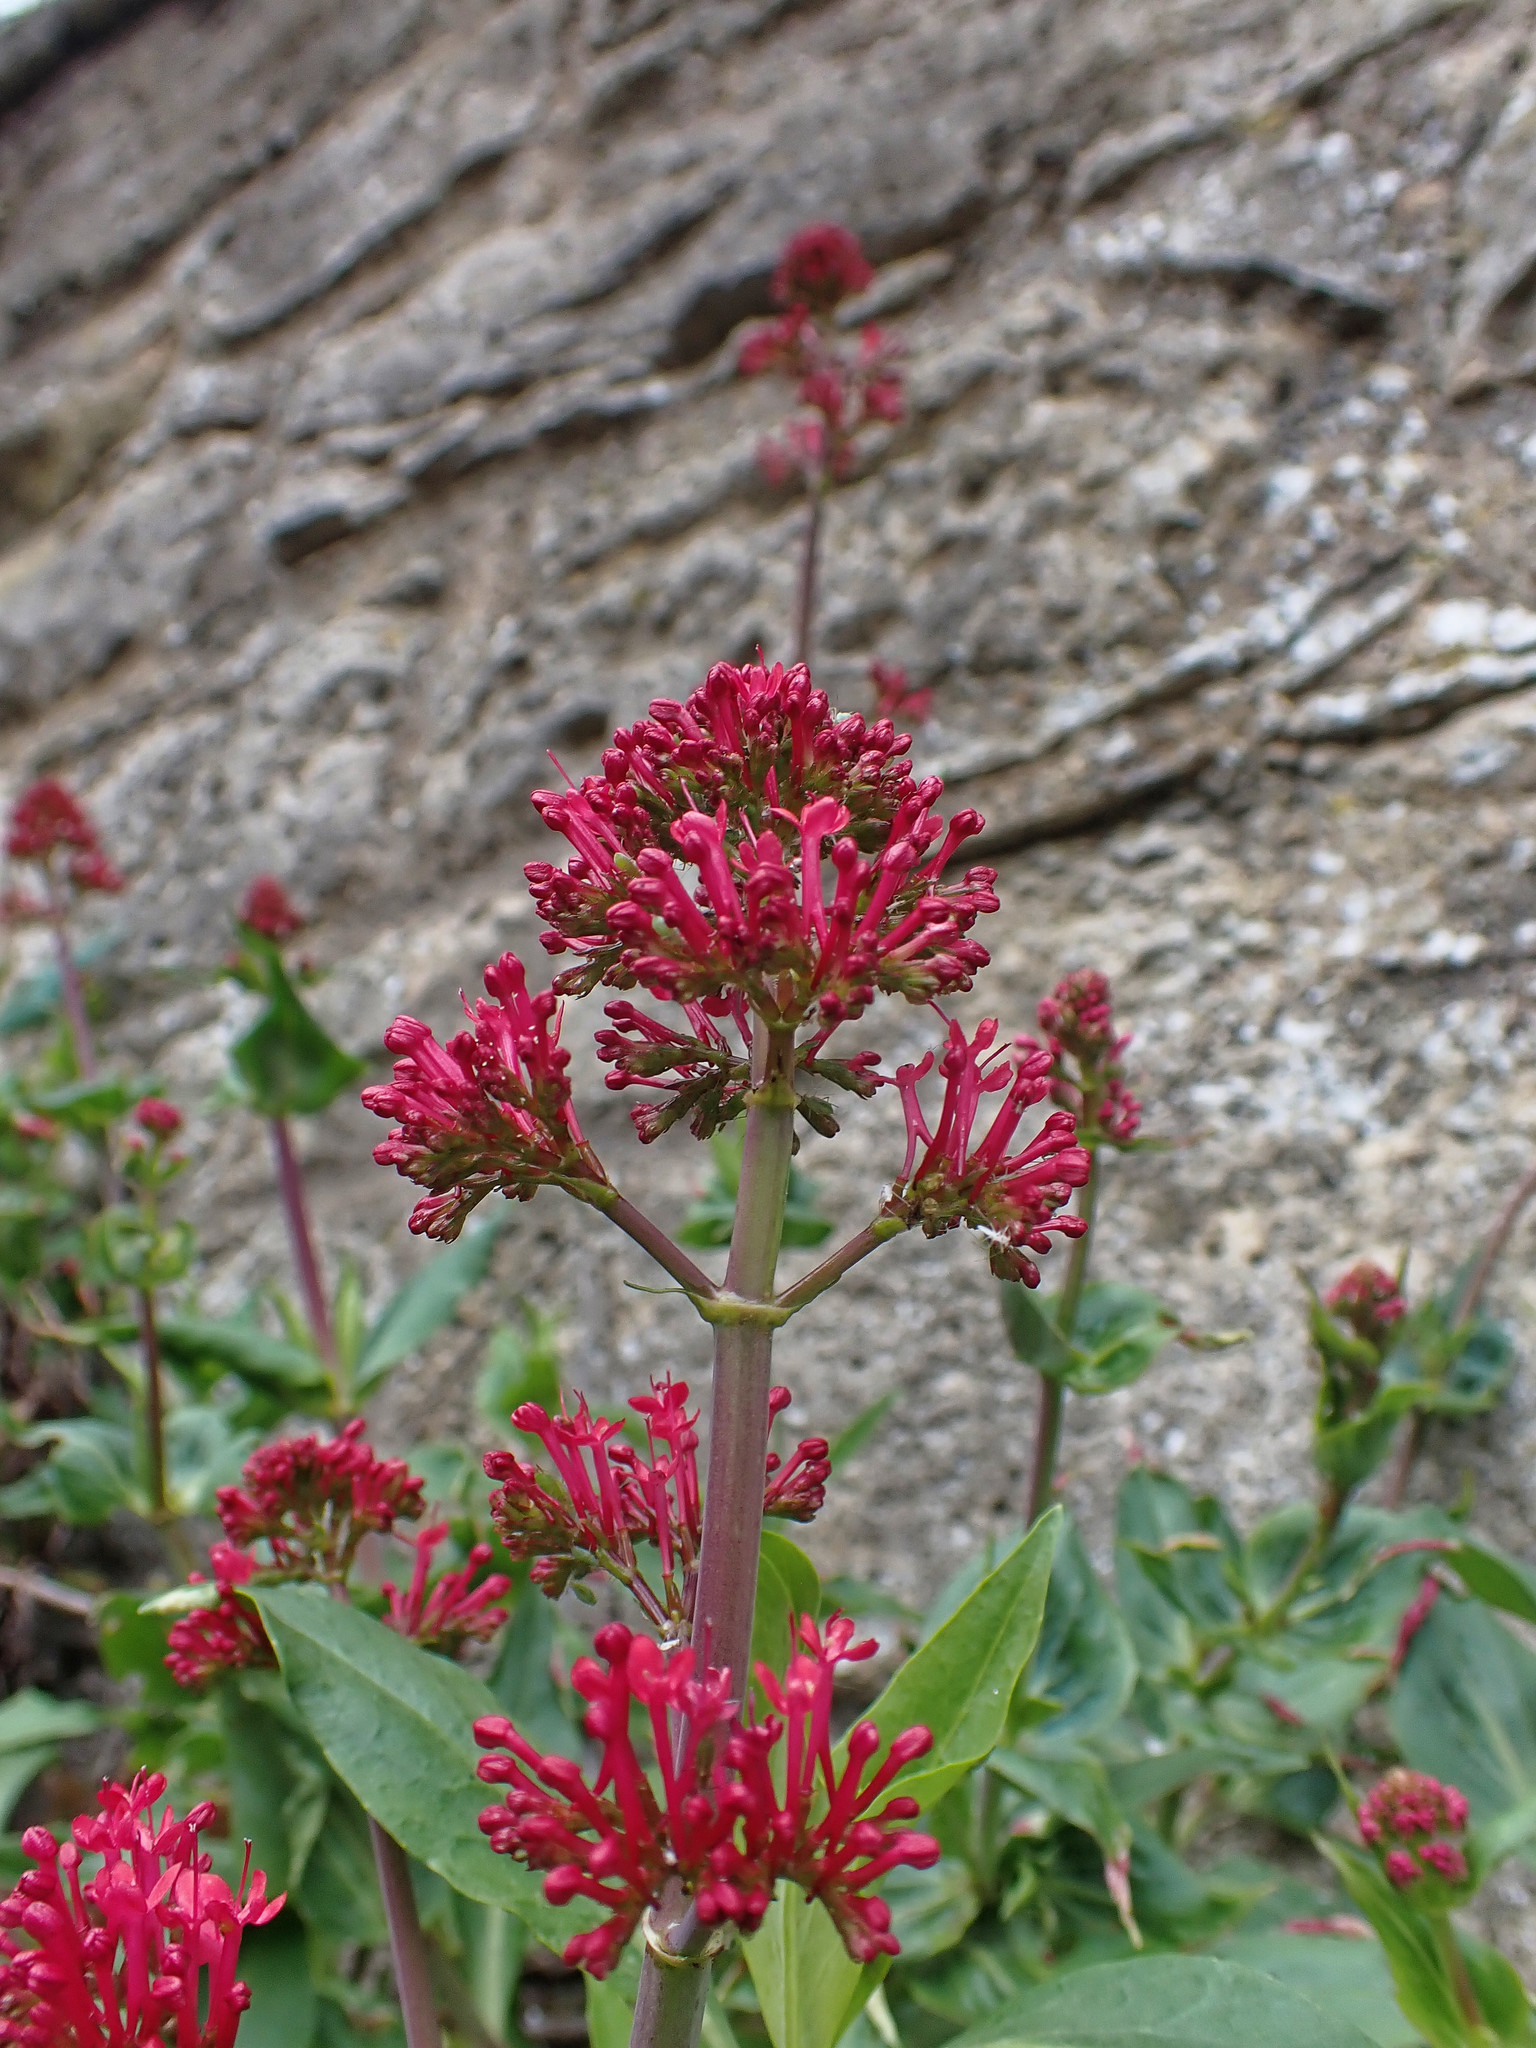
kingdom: Plantae
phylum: Tracheophyta
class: Magnoliopsida
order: Dipsacales
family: Caprifoliaceae
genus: Centranthus
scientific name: Centranthus ruber
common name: Red valerian
